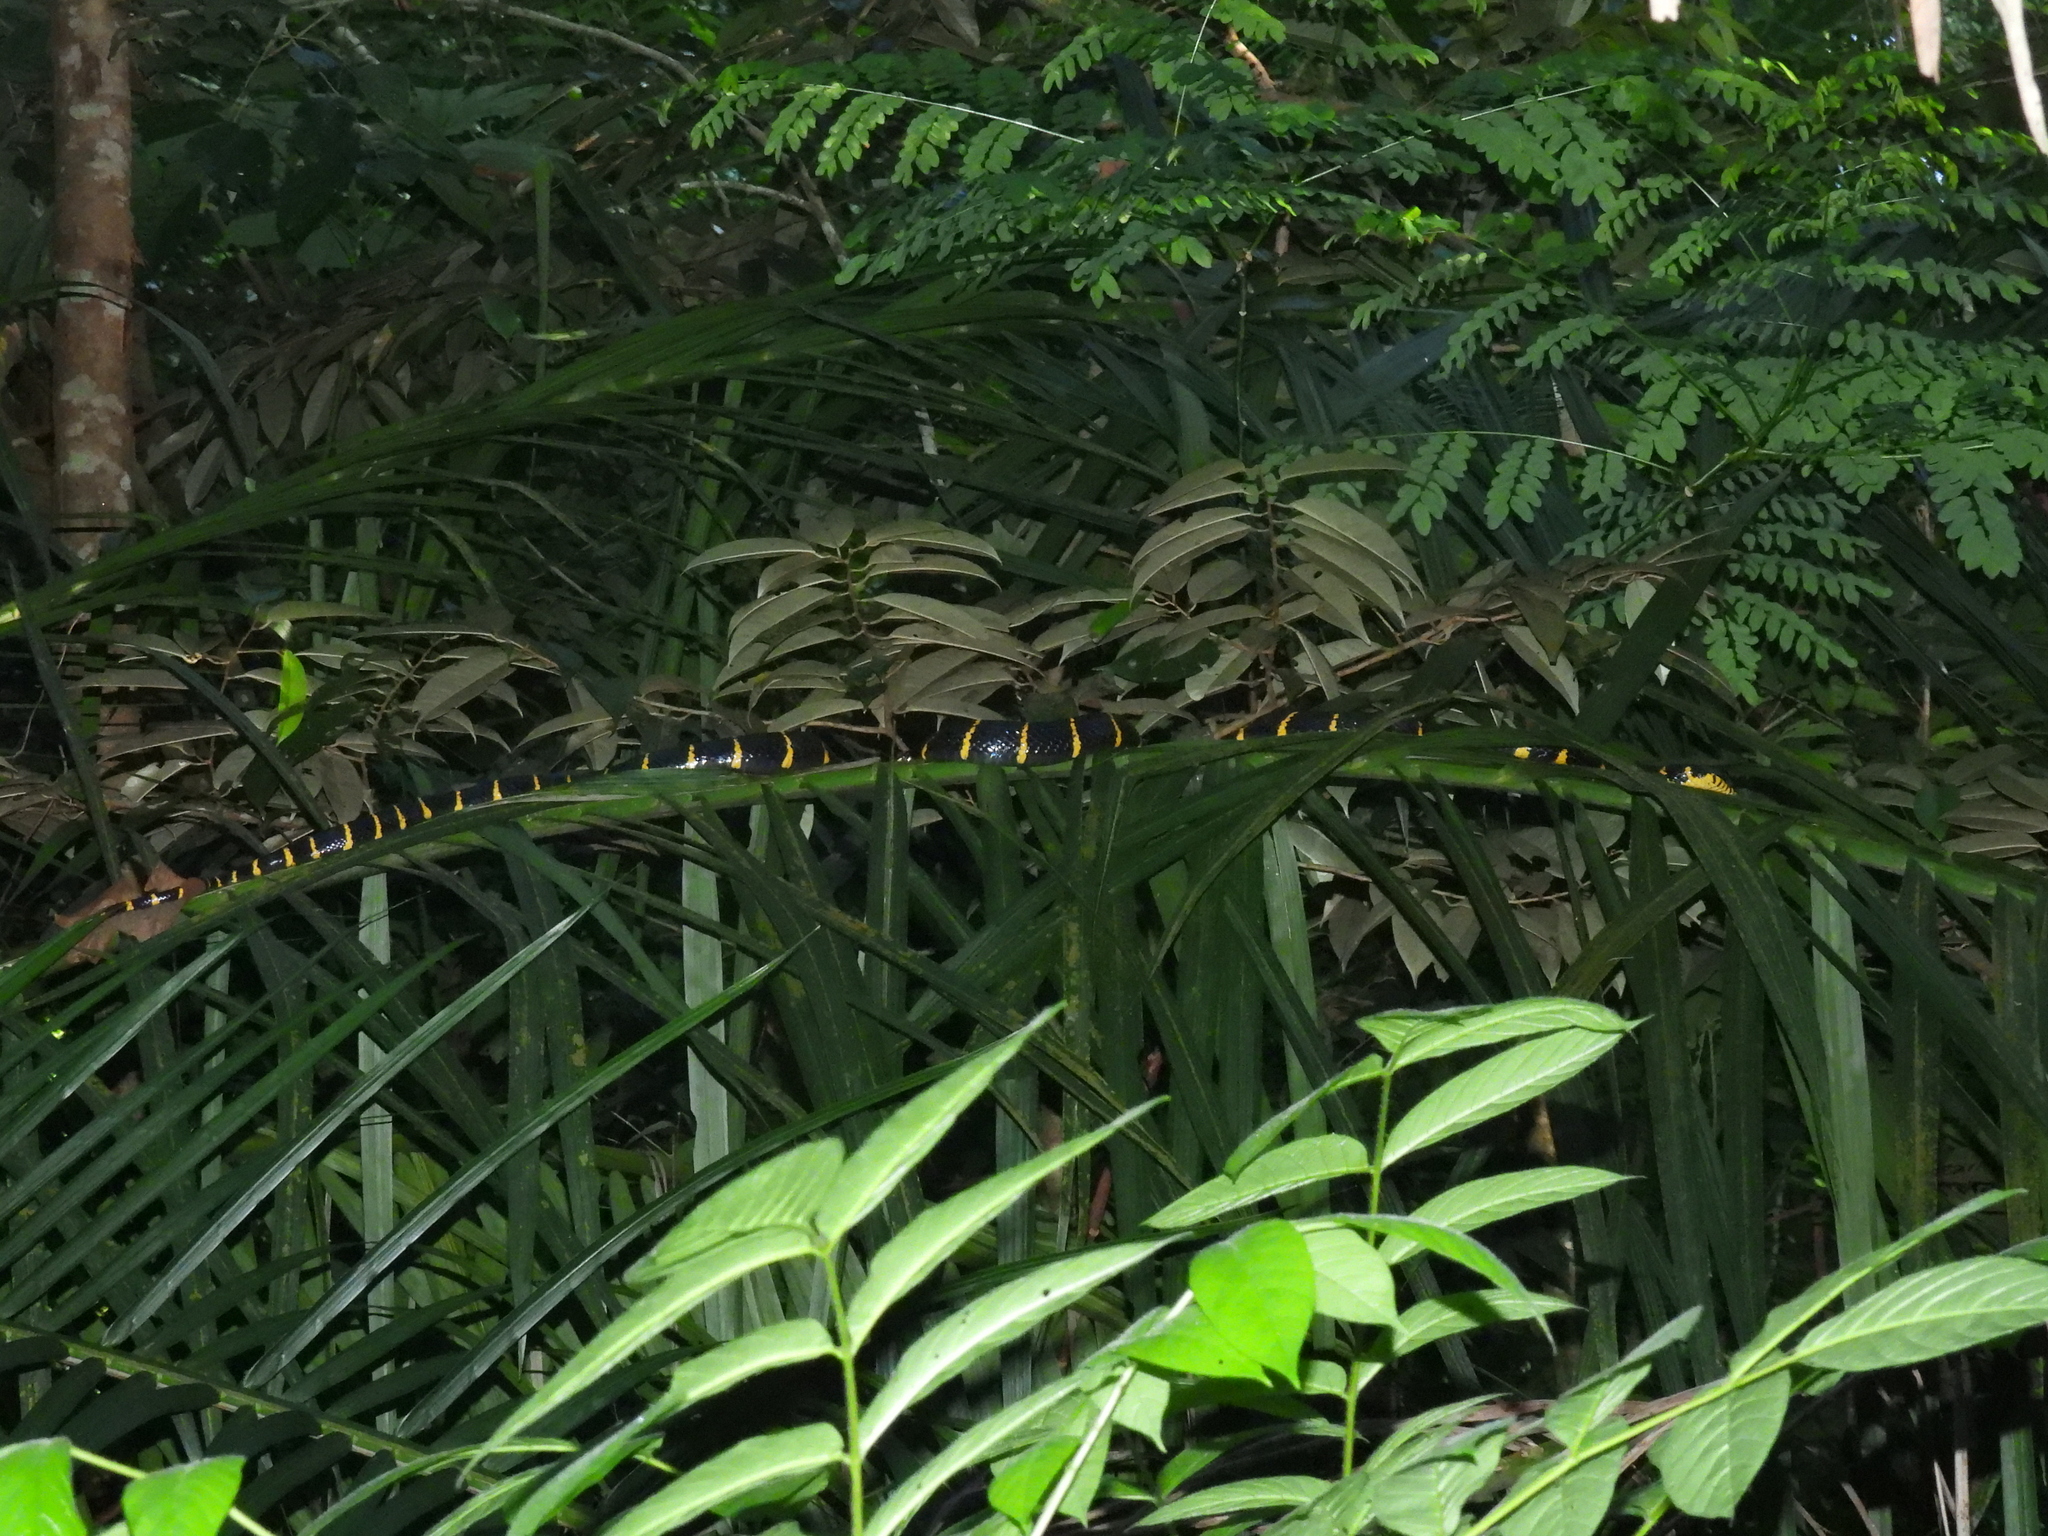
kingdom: Animalia
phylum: Chordata
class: Squamata
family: Colubridae
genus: Boiga
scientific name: Boiga melanota
